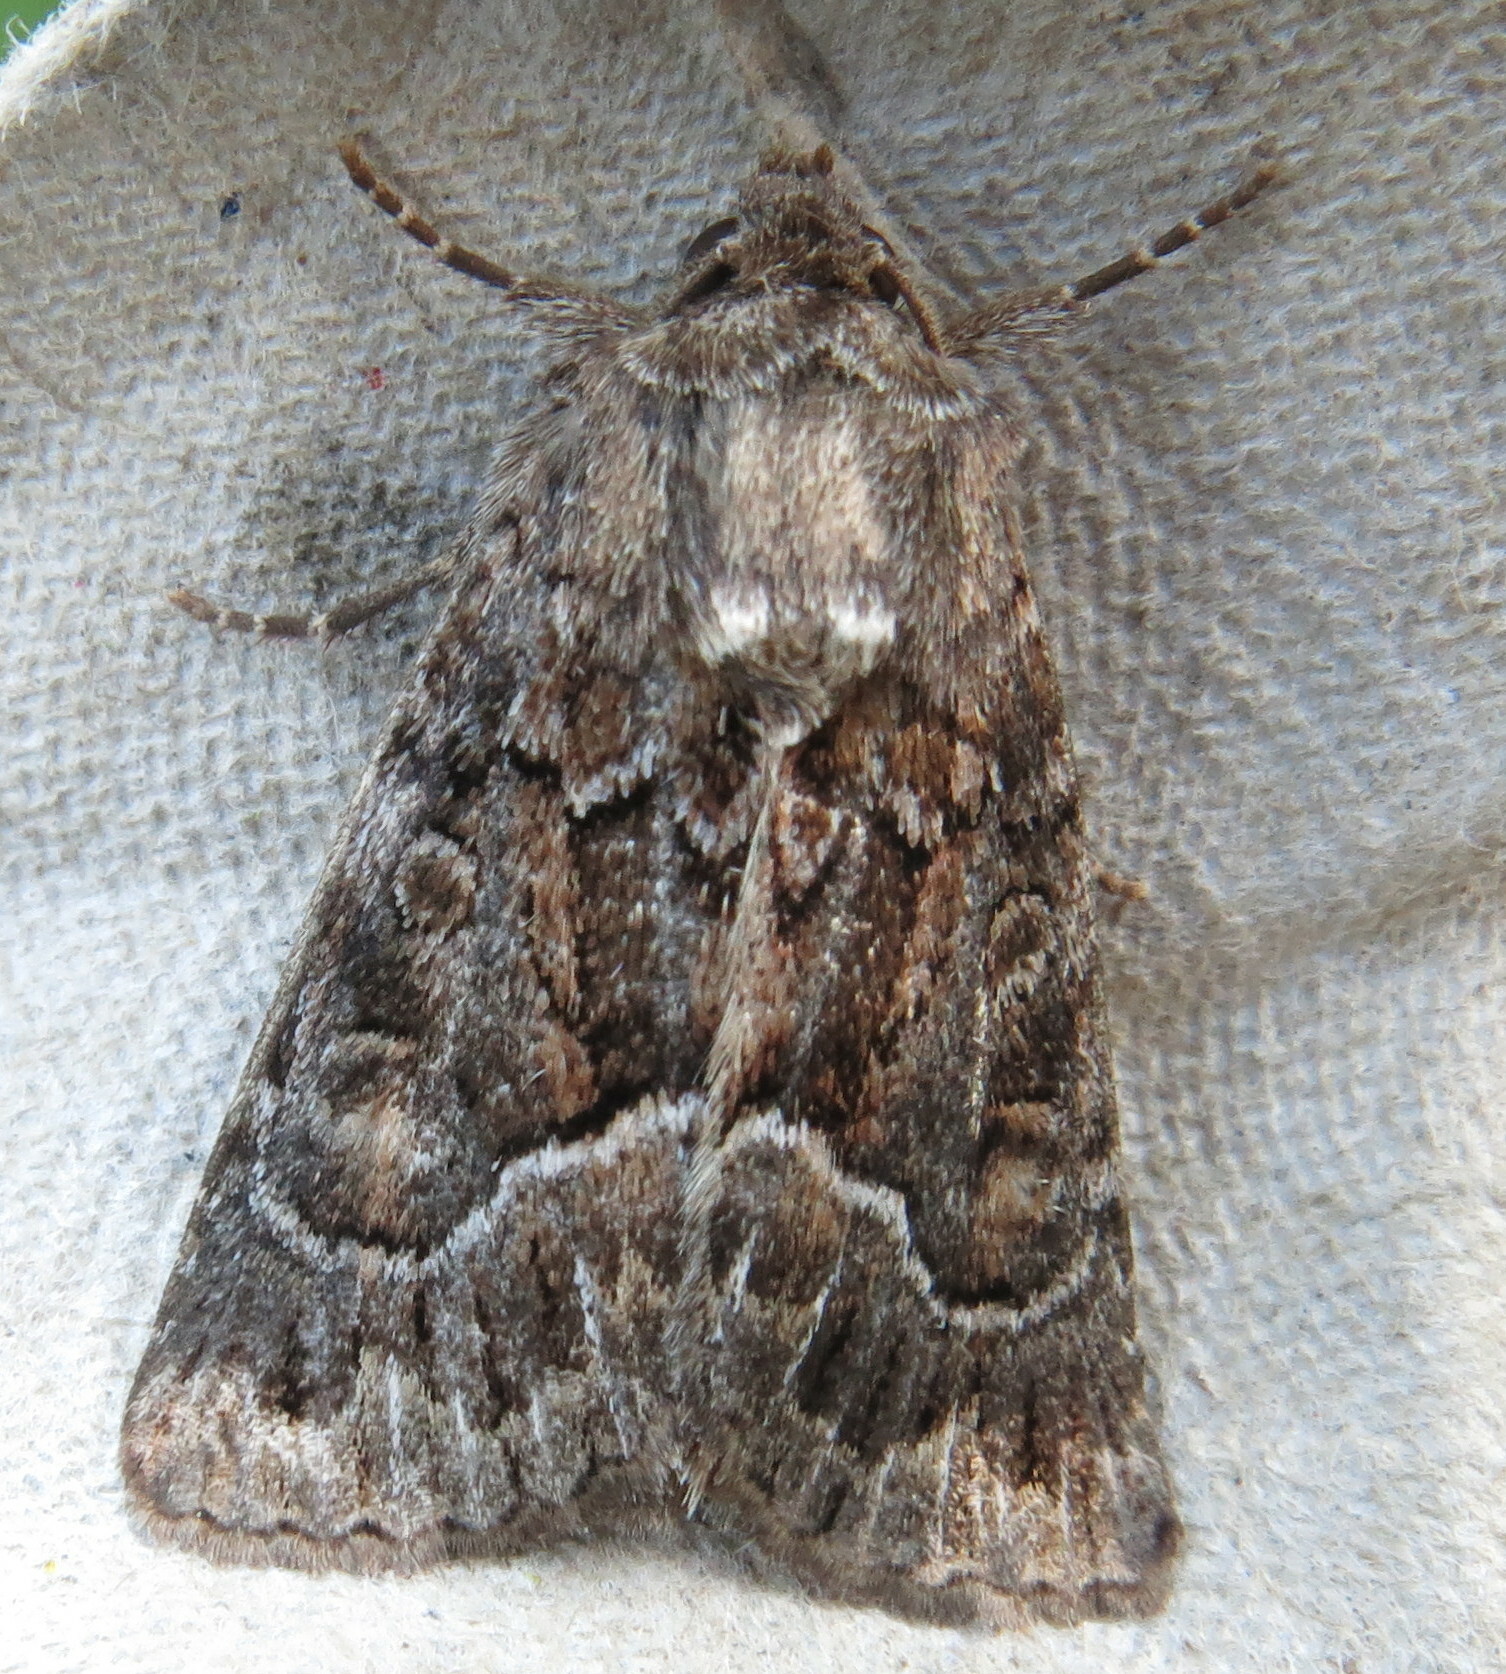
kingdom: Animalia
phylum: Arthropoda
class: Insecta
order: Lepidoptera
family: Noctuidae
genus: Thalpophila
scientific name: Thalpophila matura
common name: Straw underwing
